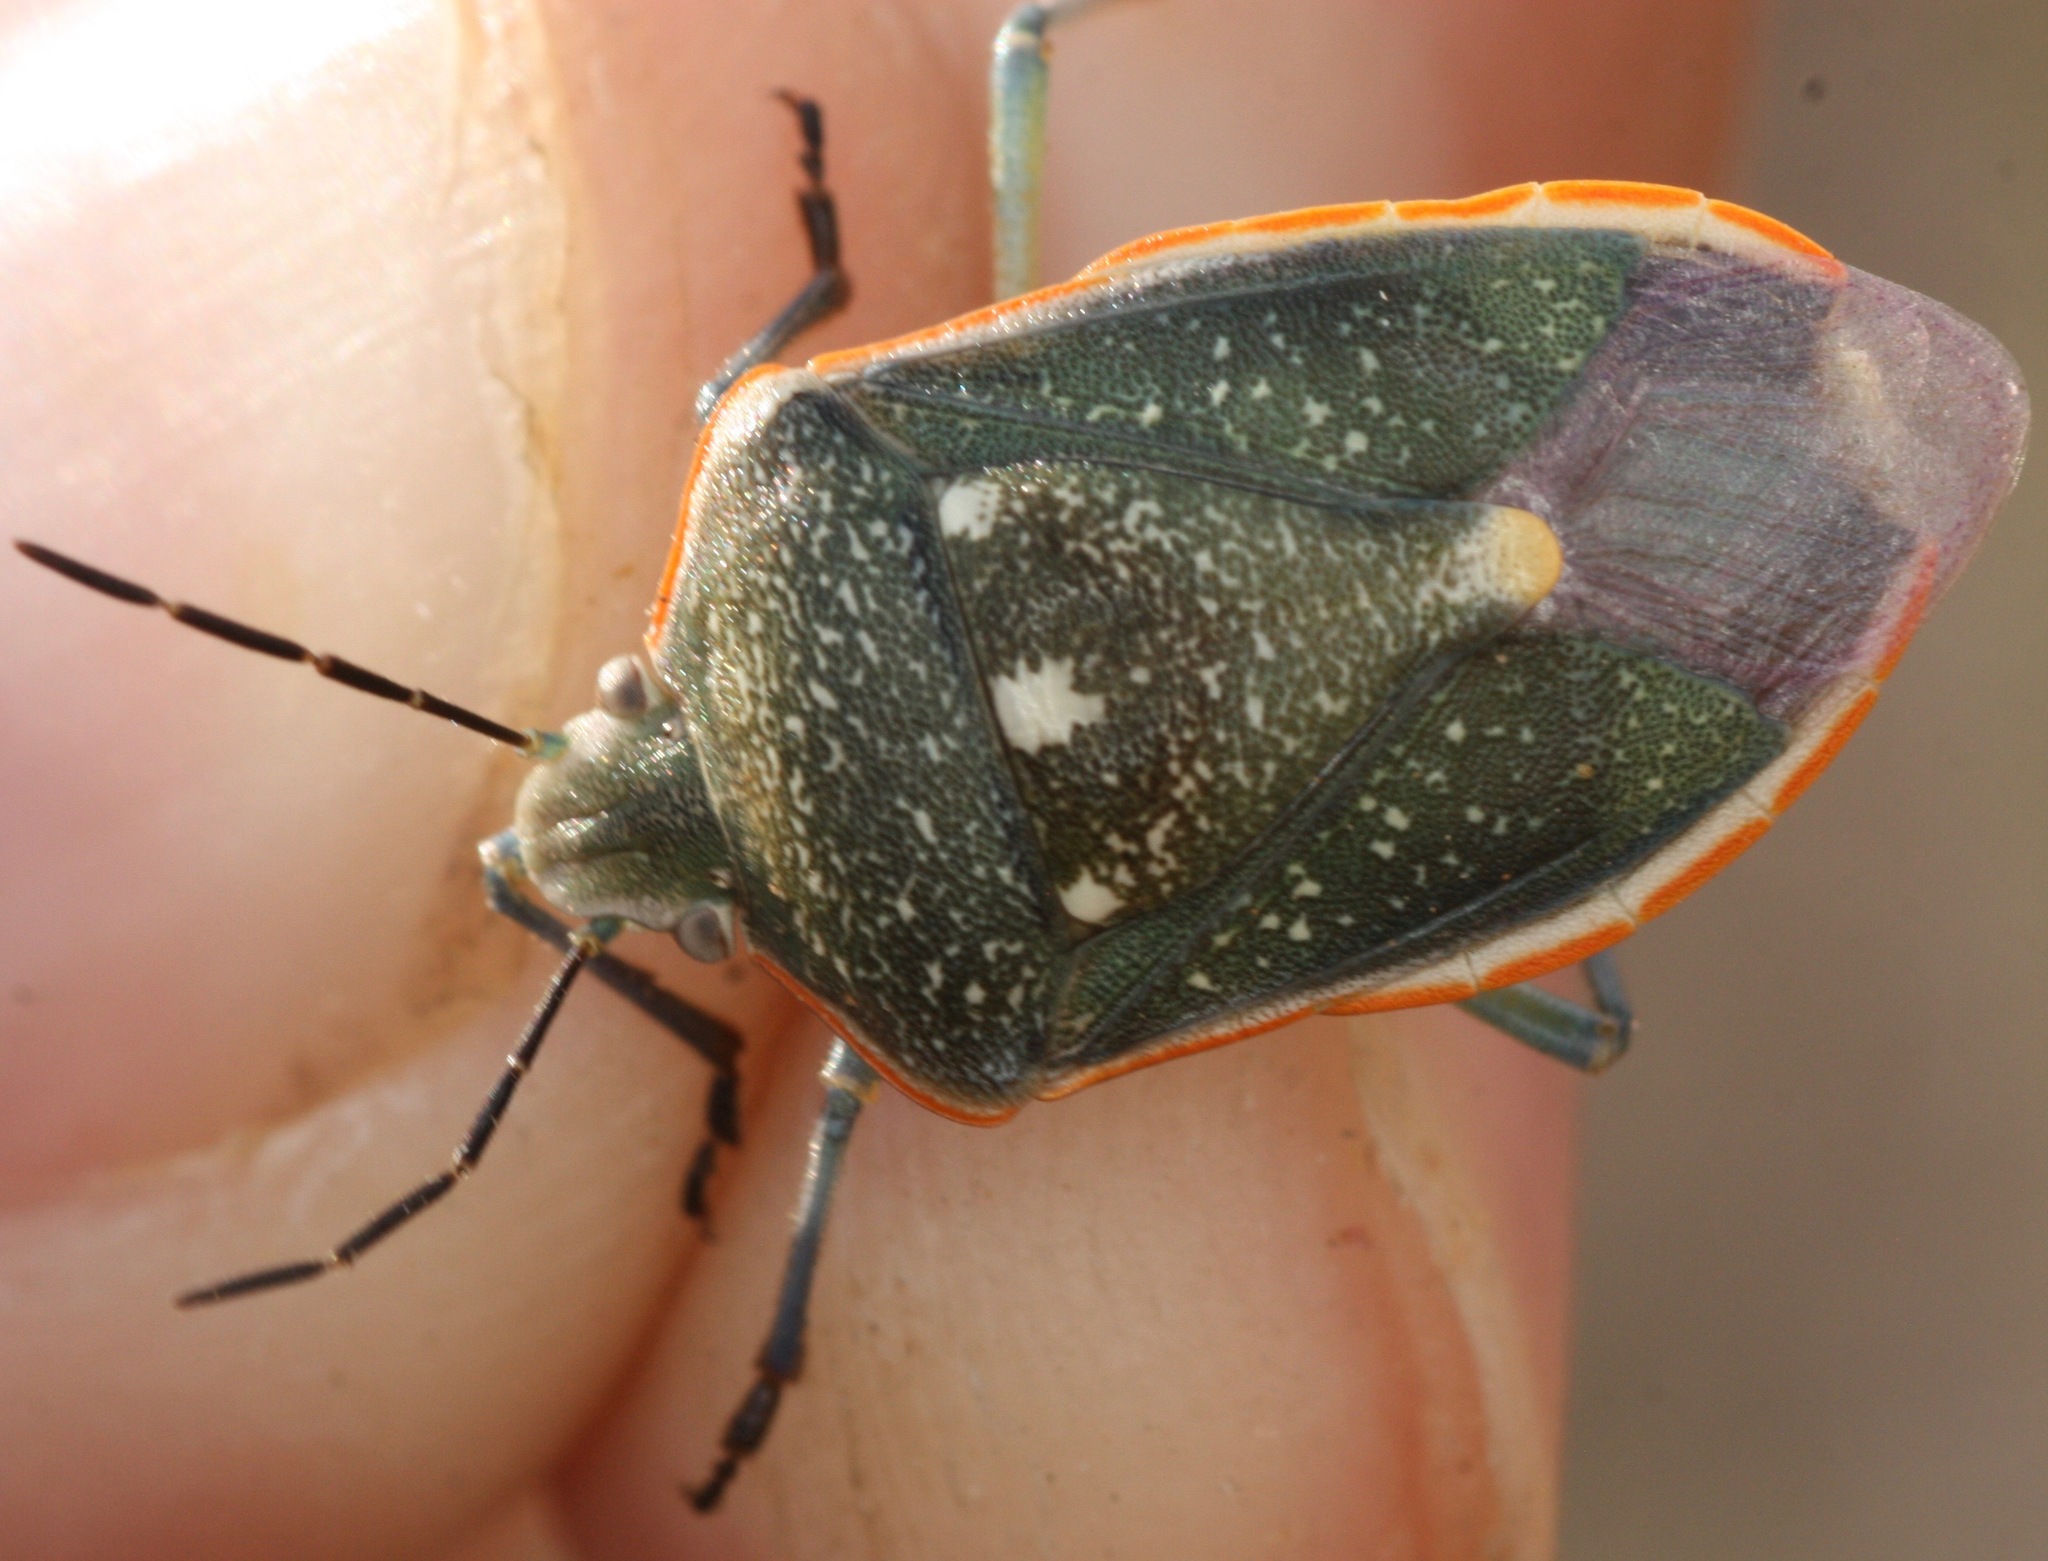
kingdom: Animalia
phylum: Arthropoda
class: Insecta
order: Hemiptera
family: Pentatomidae
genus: Chlorochroa
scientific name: Chlorochroa sayi
